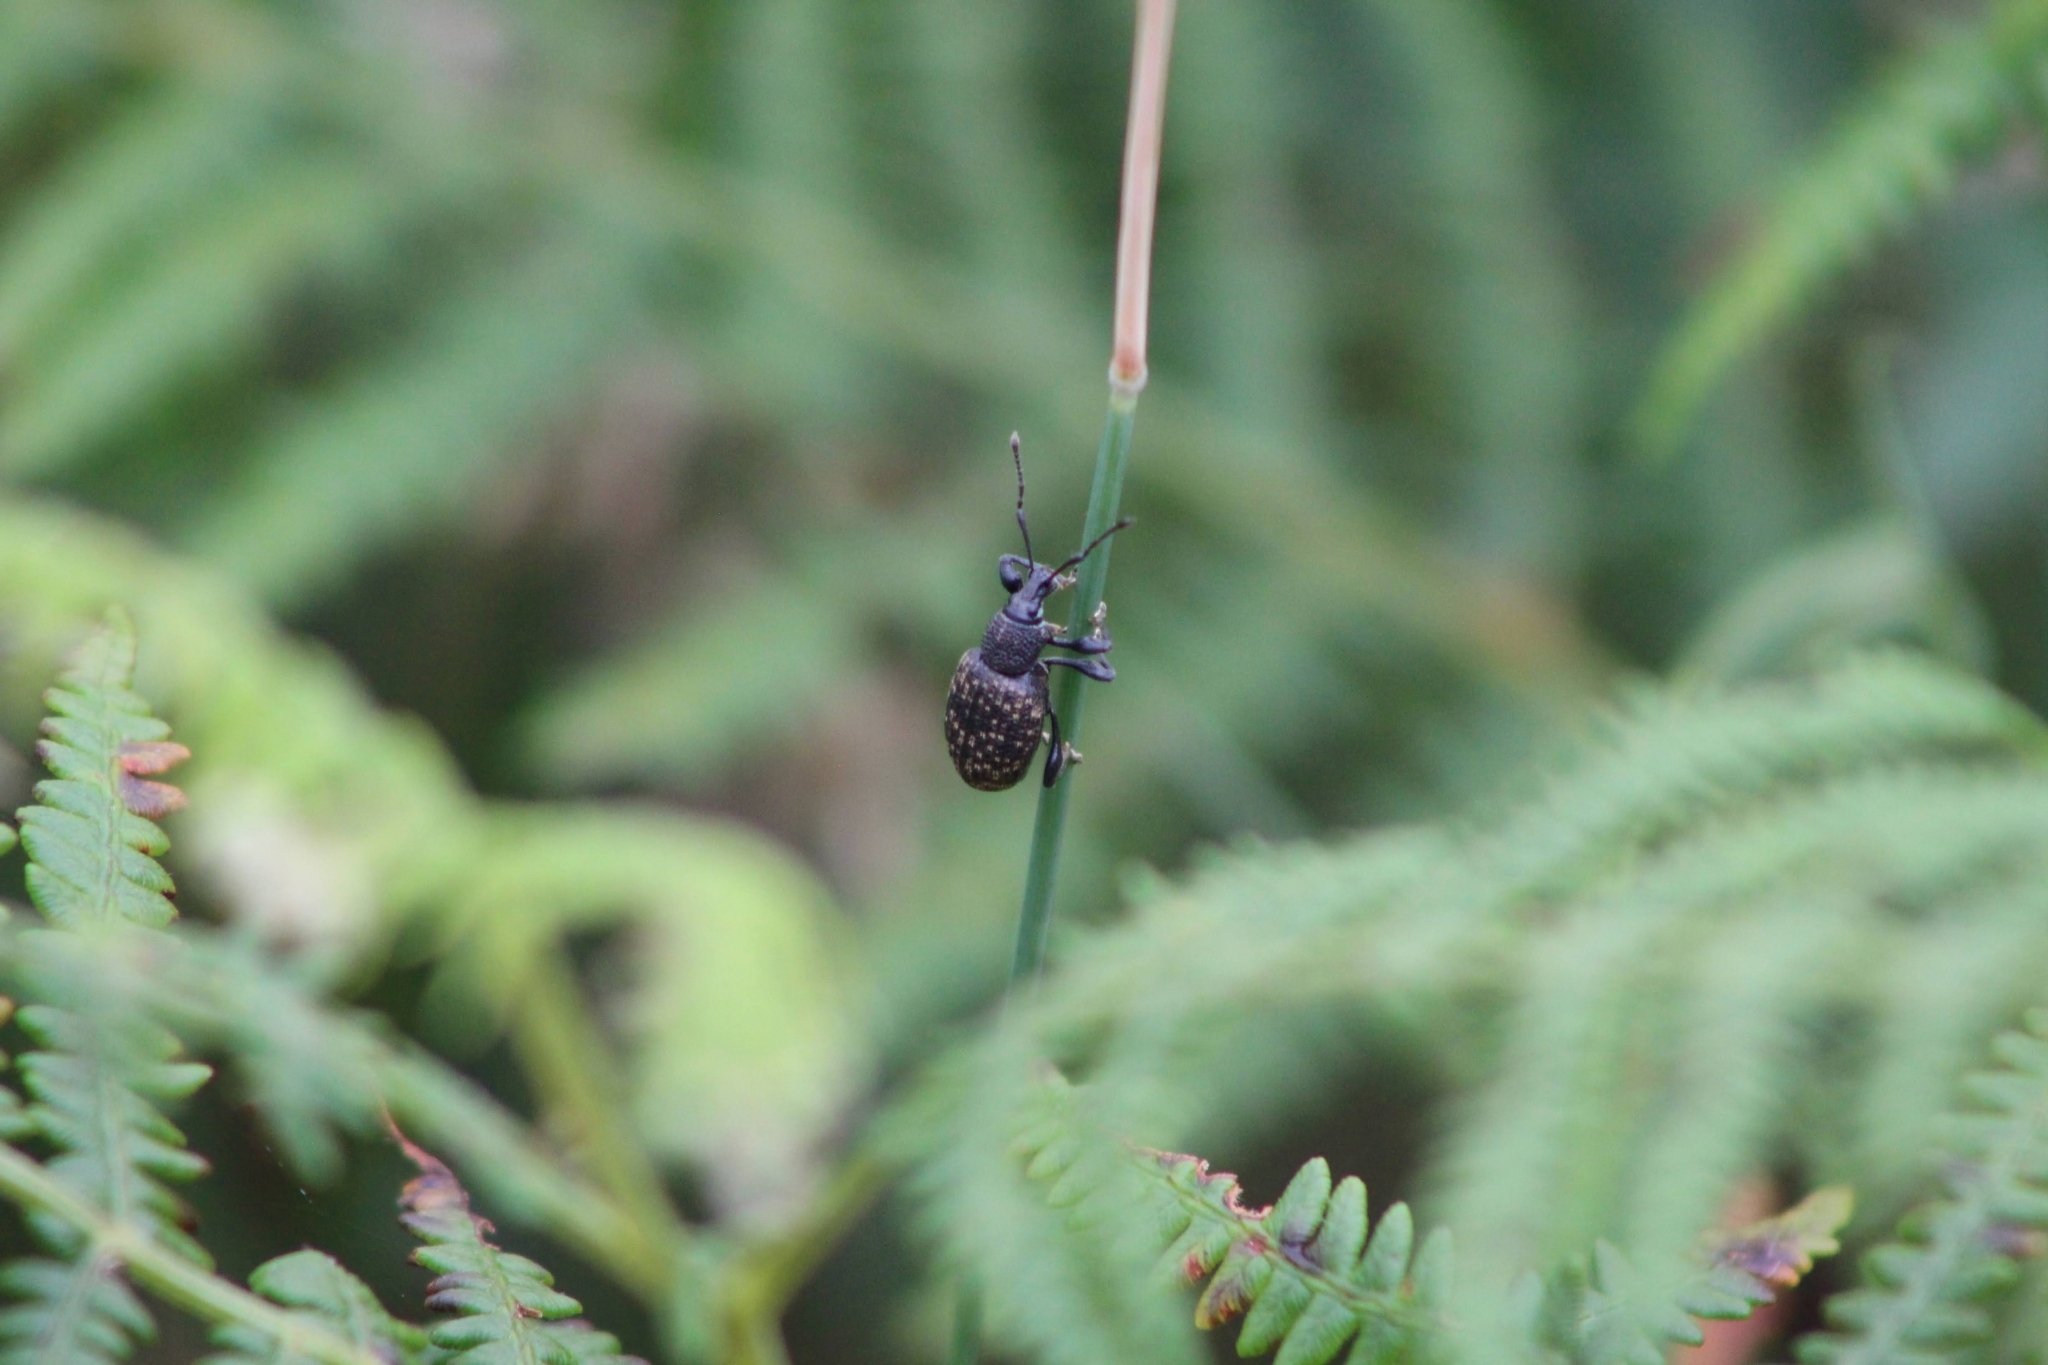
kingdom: Animalia
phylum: Arthropoda
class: Insecta
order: Coleoptera
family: Curculionidae
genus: Otiorhynchus
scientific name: Otiorhynchus sulcatus
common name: Black vine weevil
